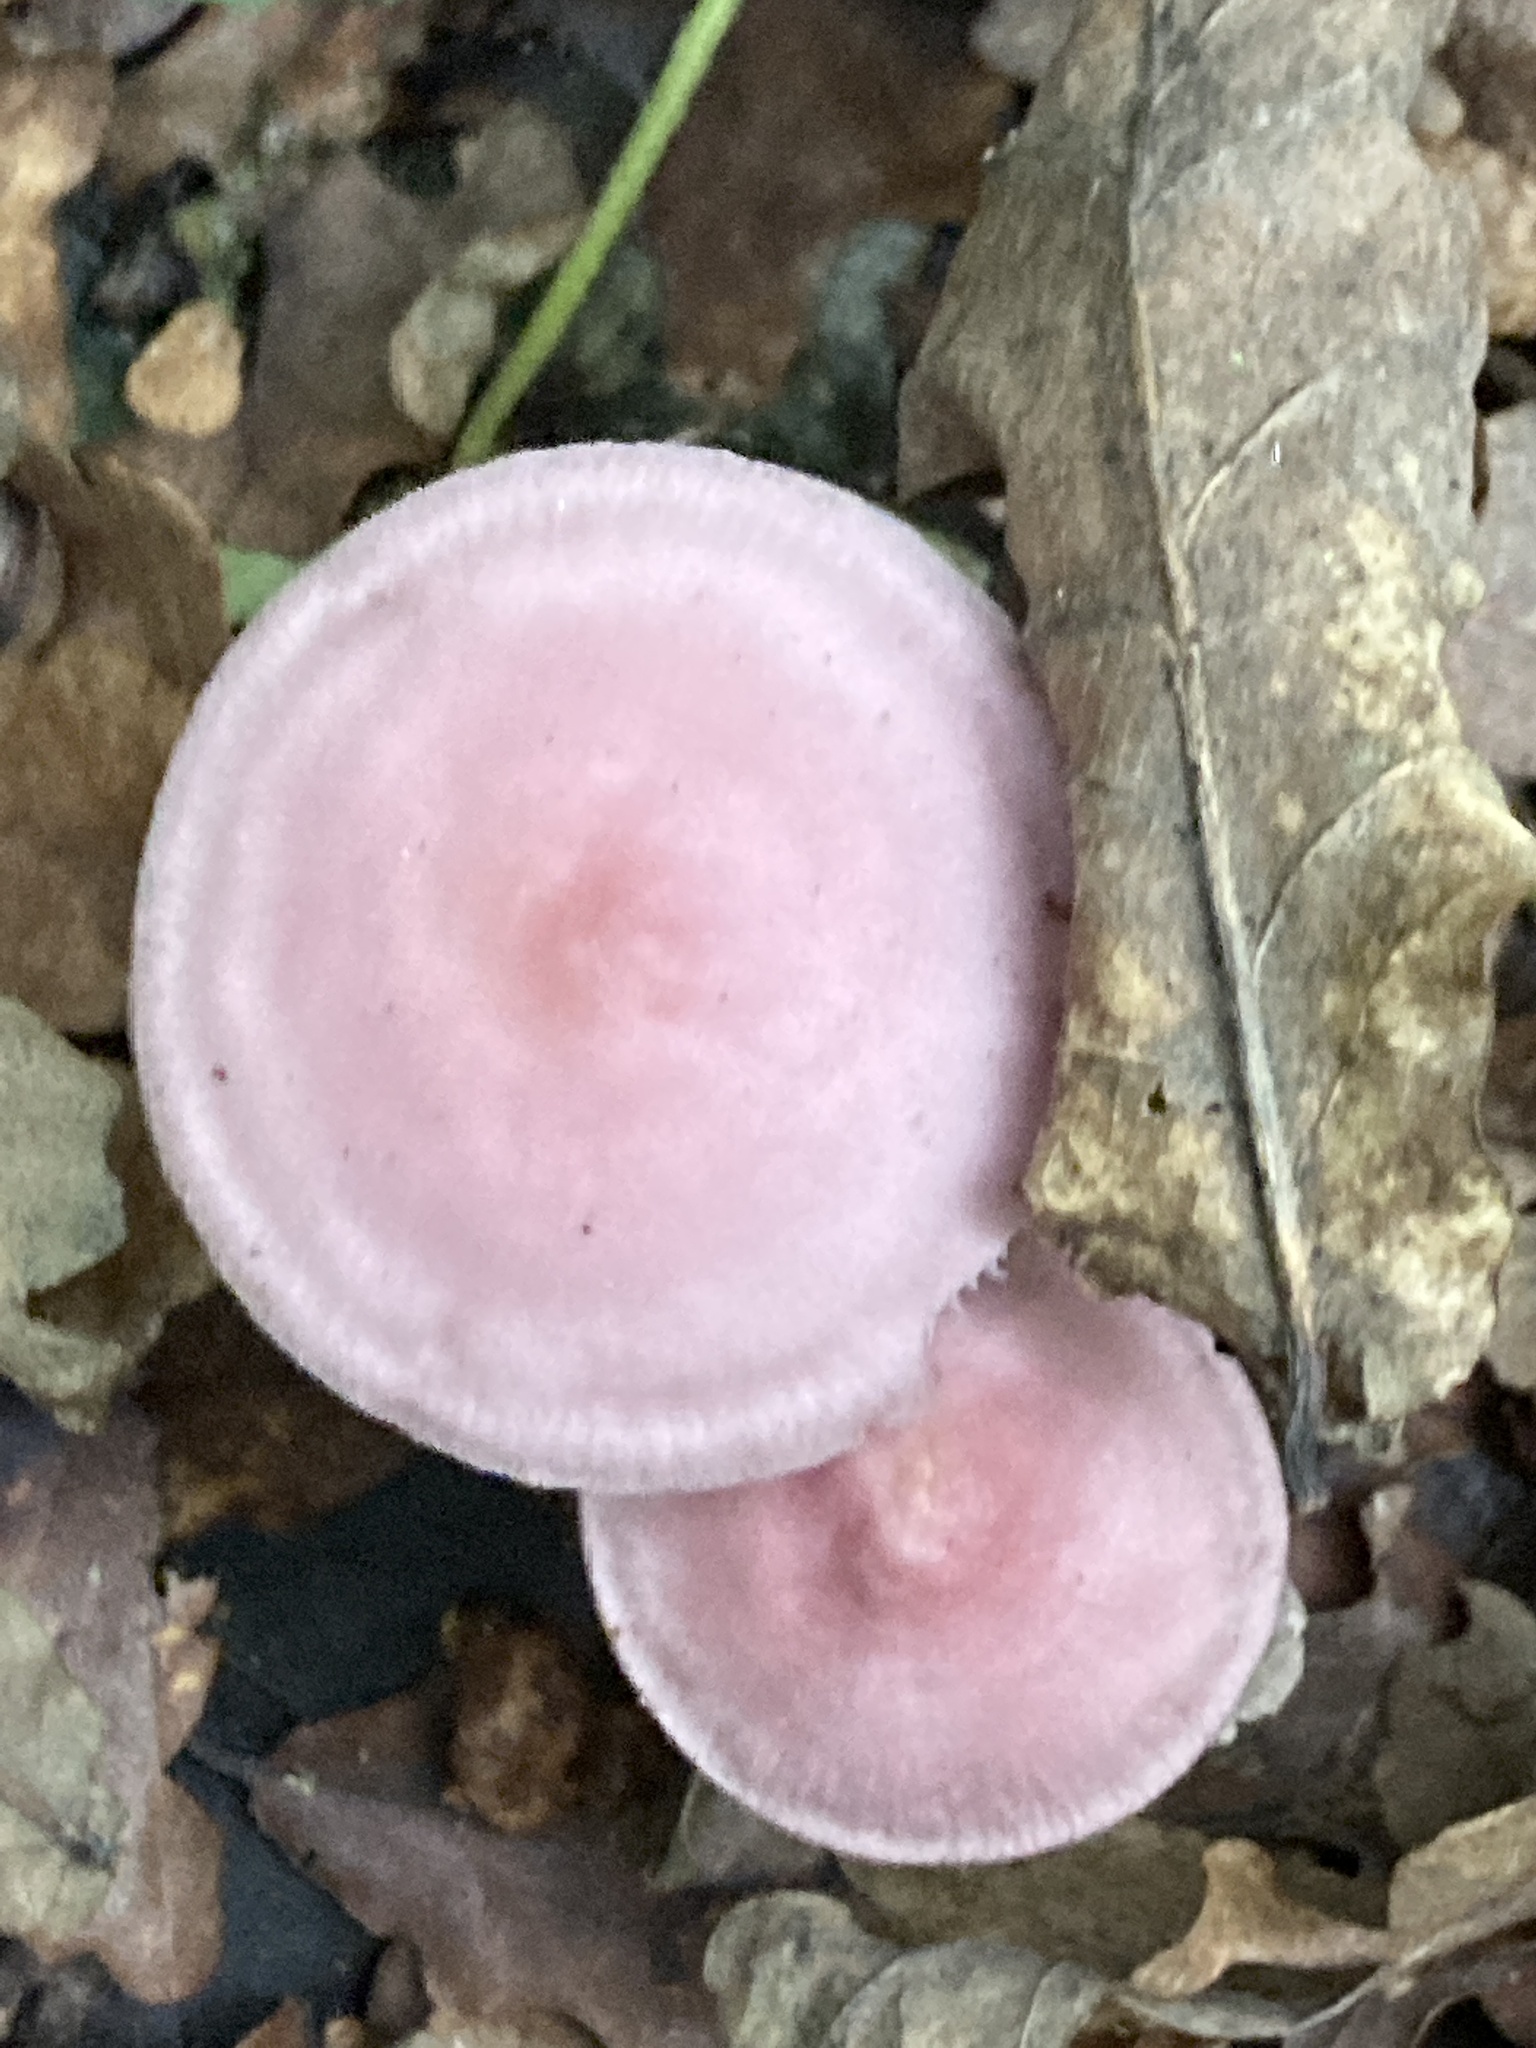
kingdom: Fungi
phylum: Basidiomycota
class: Agaricomycetes
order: Agaricales
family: Mycenaceae
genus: Mycena
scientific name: Mycena rosea
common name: Rosy bonnet
